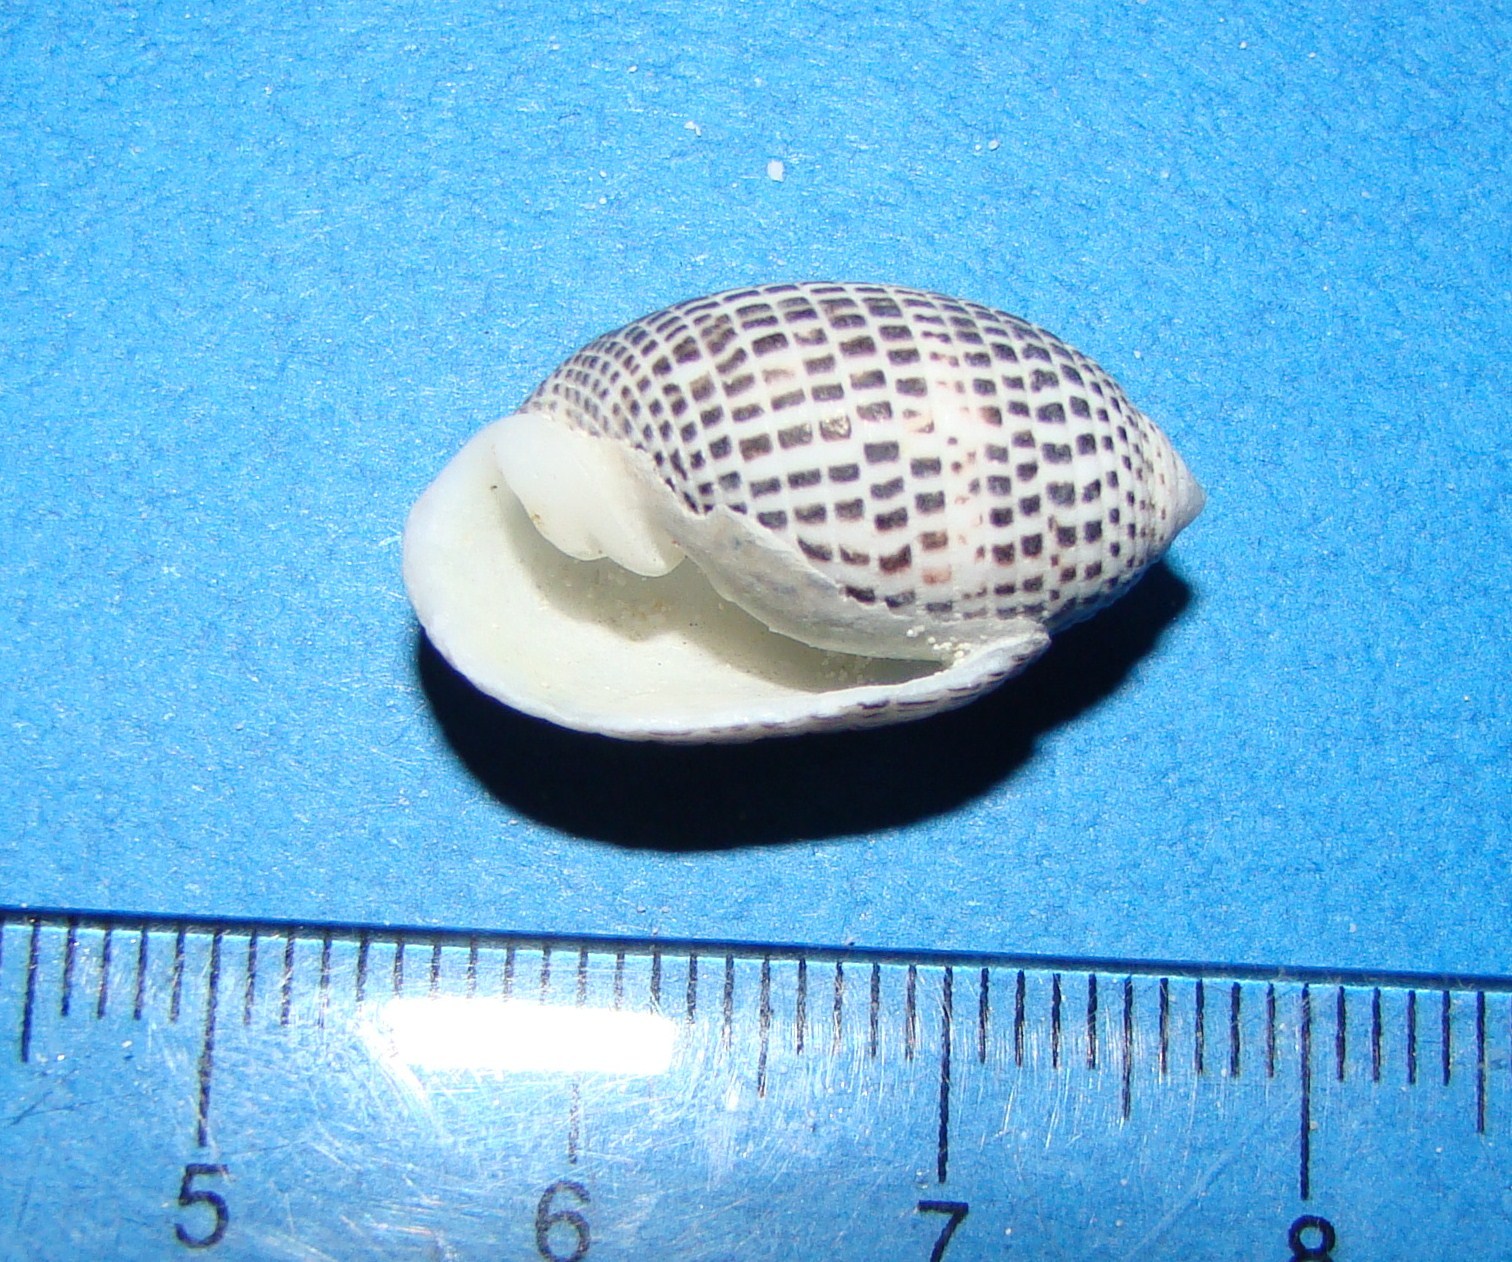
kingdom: Animalia
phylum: Mollusca
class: Gastropoda
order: Cephalaspidea
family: Acteonidae
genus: Pupa
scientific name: Pupa solidula
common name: Solid pupa
